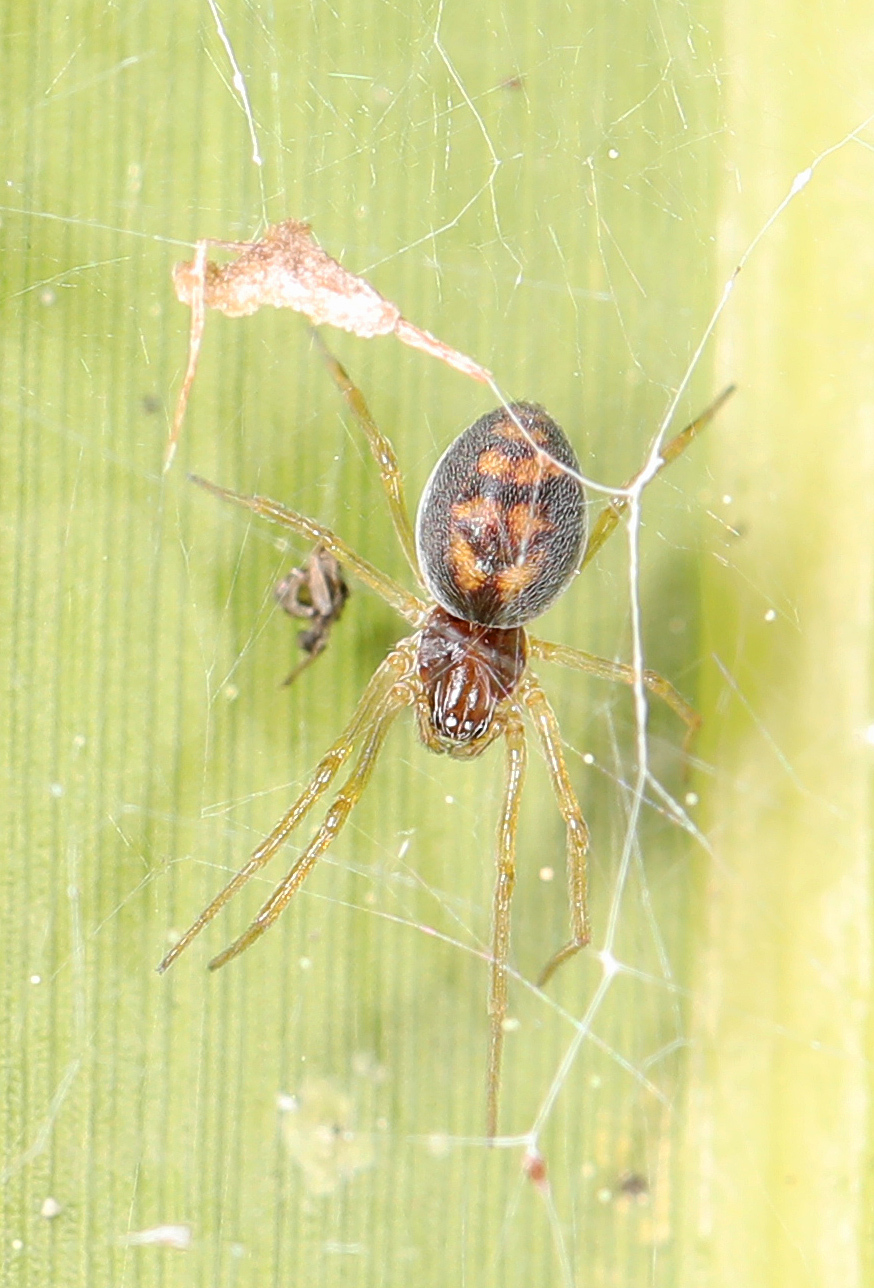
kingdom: Animalia
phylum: Arthropoda
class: Arachnida
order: Araneae
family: Dictynidae
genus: Emblyna
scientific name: Emblyna florens
